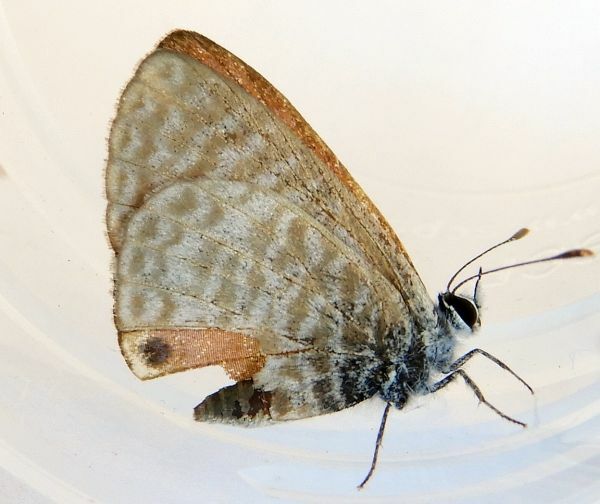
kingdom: Animalia
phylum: Arthropoda
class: Insecta
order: Lepidoptera
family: Lycaenidae
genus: Leptotes
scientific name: Leptotes marina
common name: Marine blue
